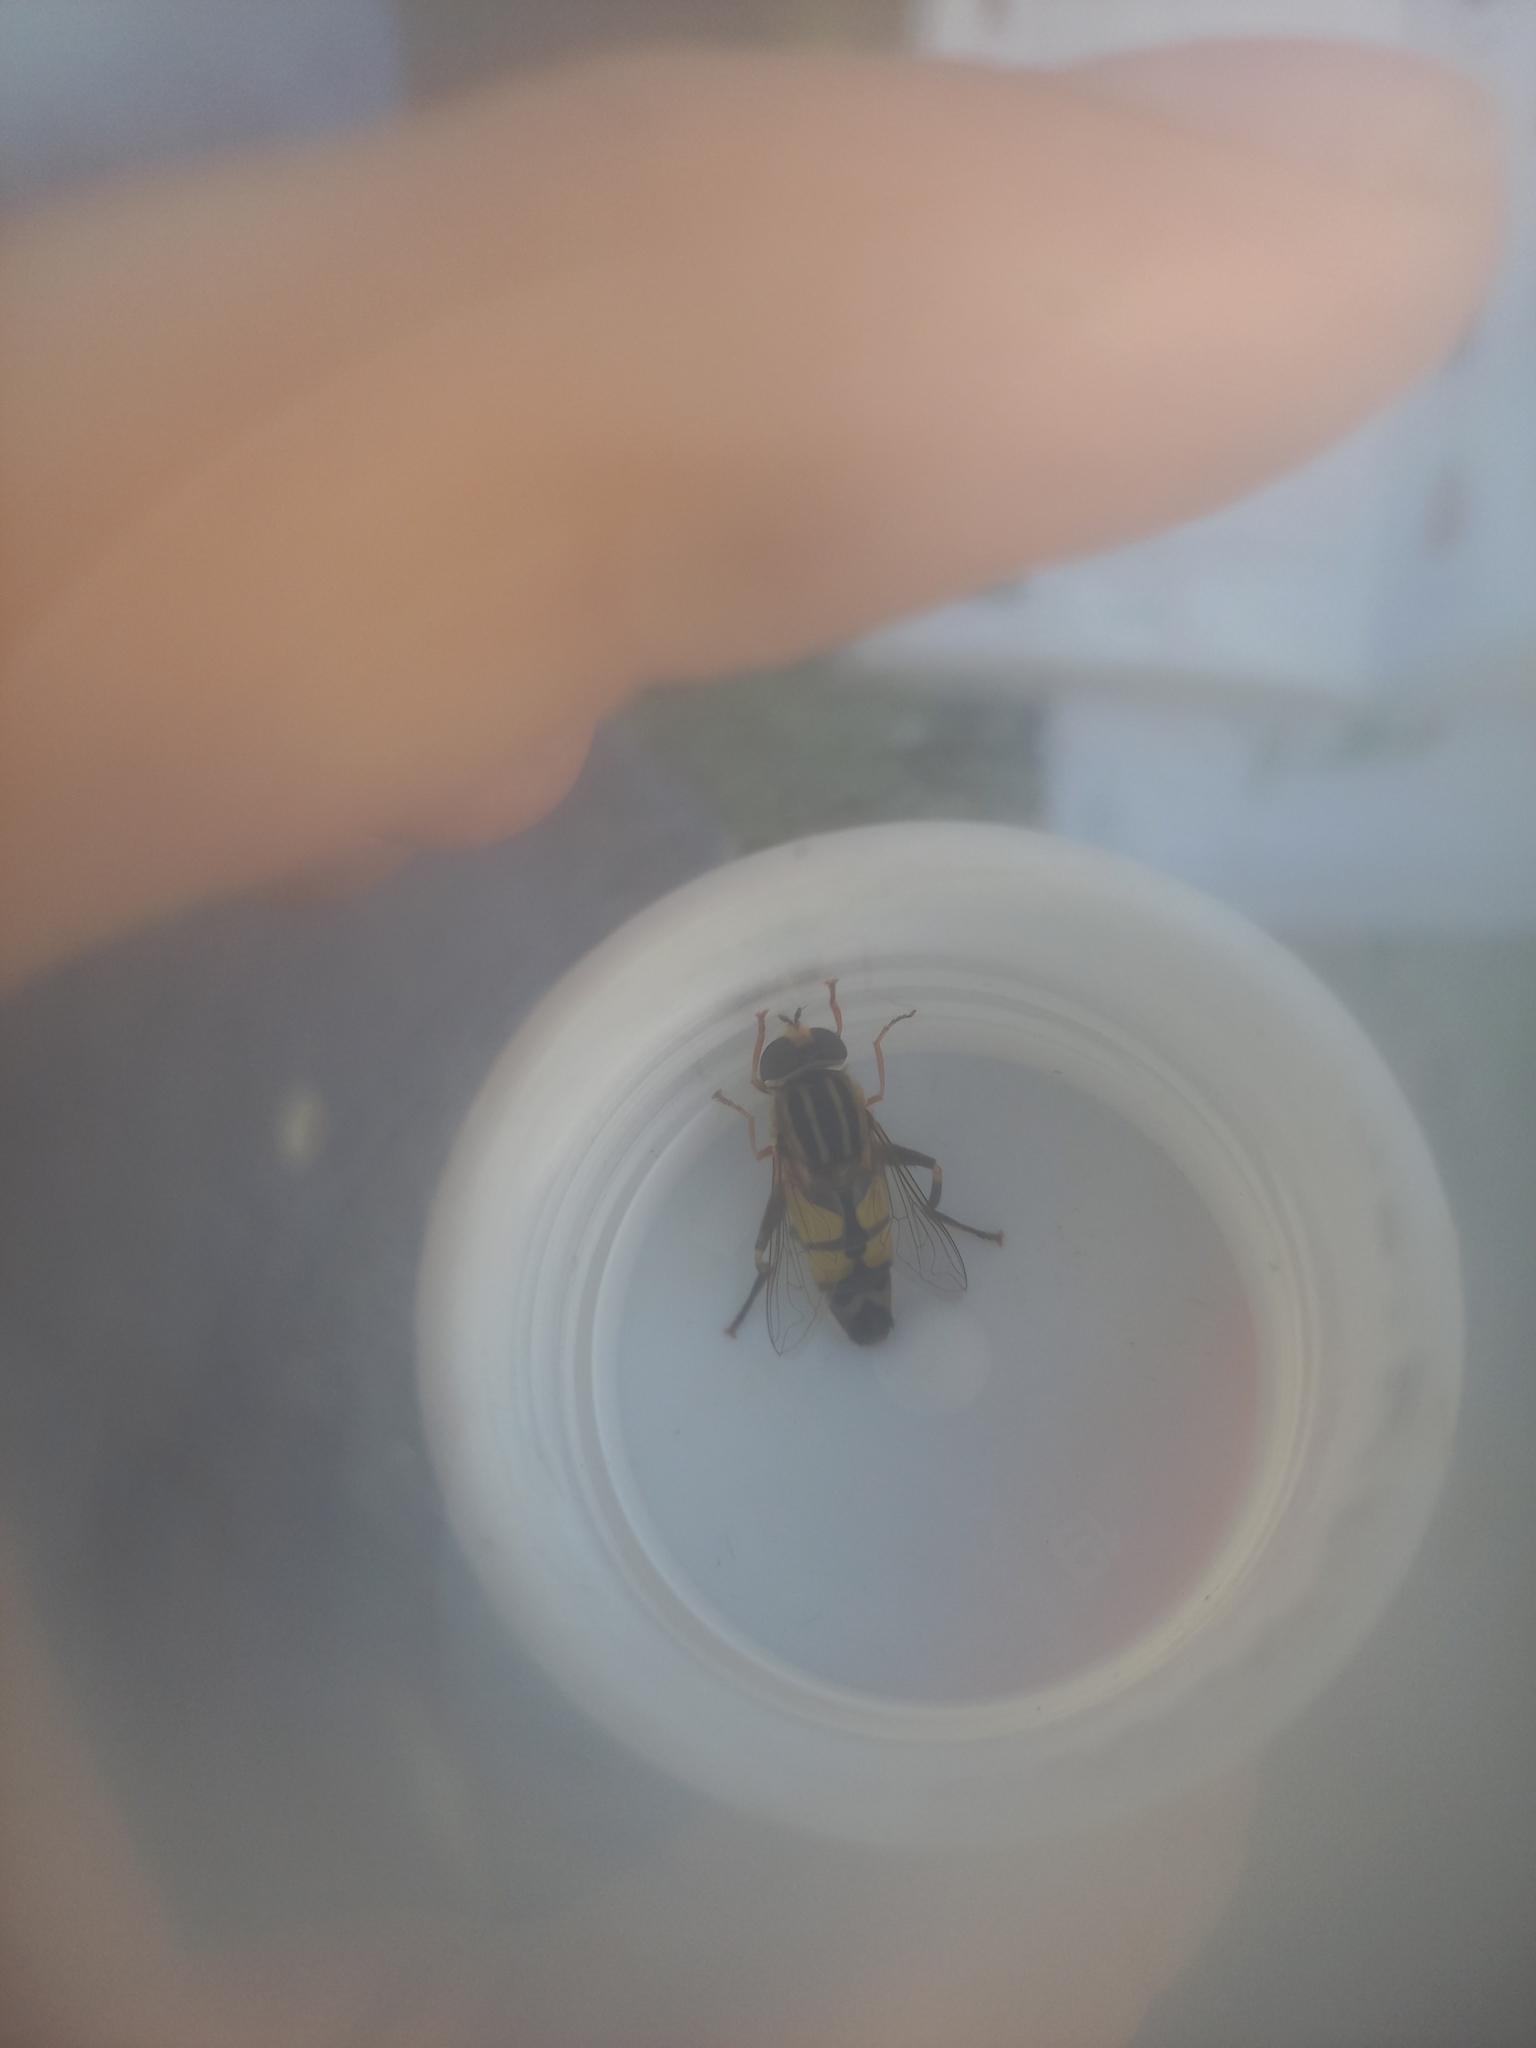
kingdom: Animalia
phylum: Arthropoda
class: Insecta
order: Diptera
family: Syrphidae
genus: Helophilus
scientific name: Helophilus trivittatus
